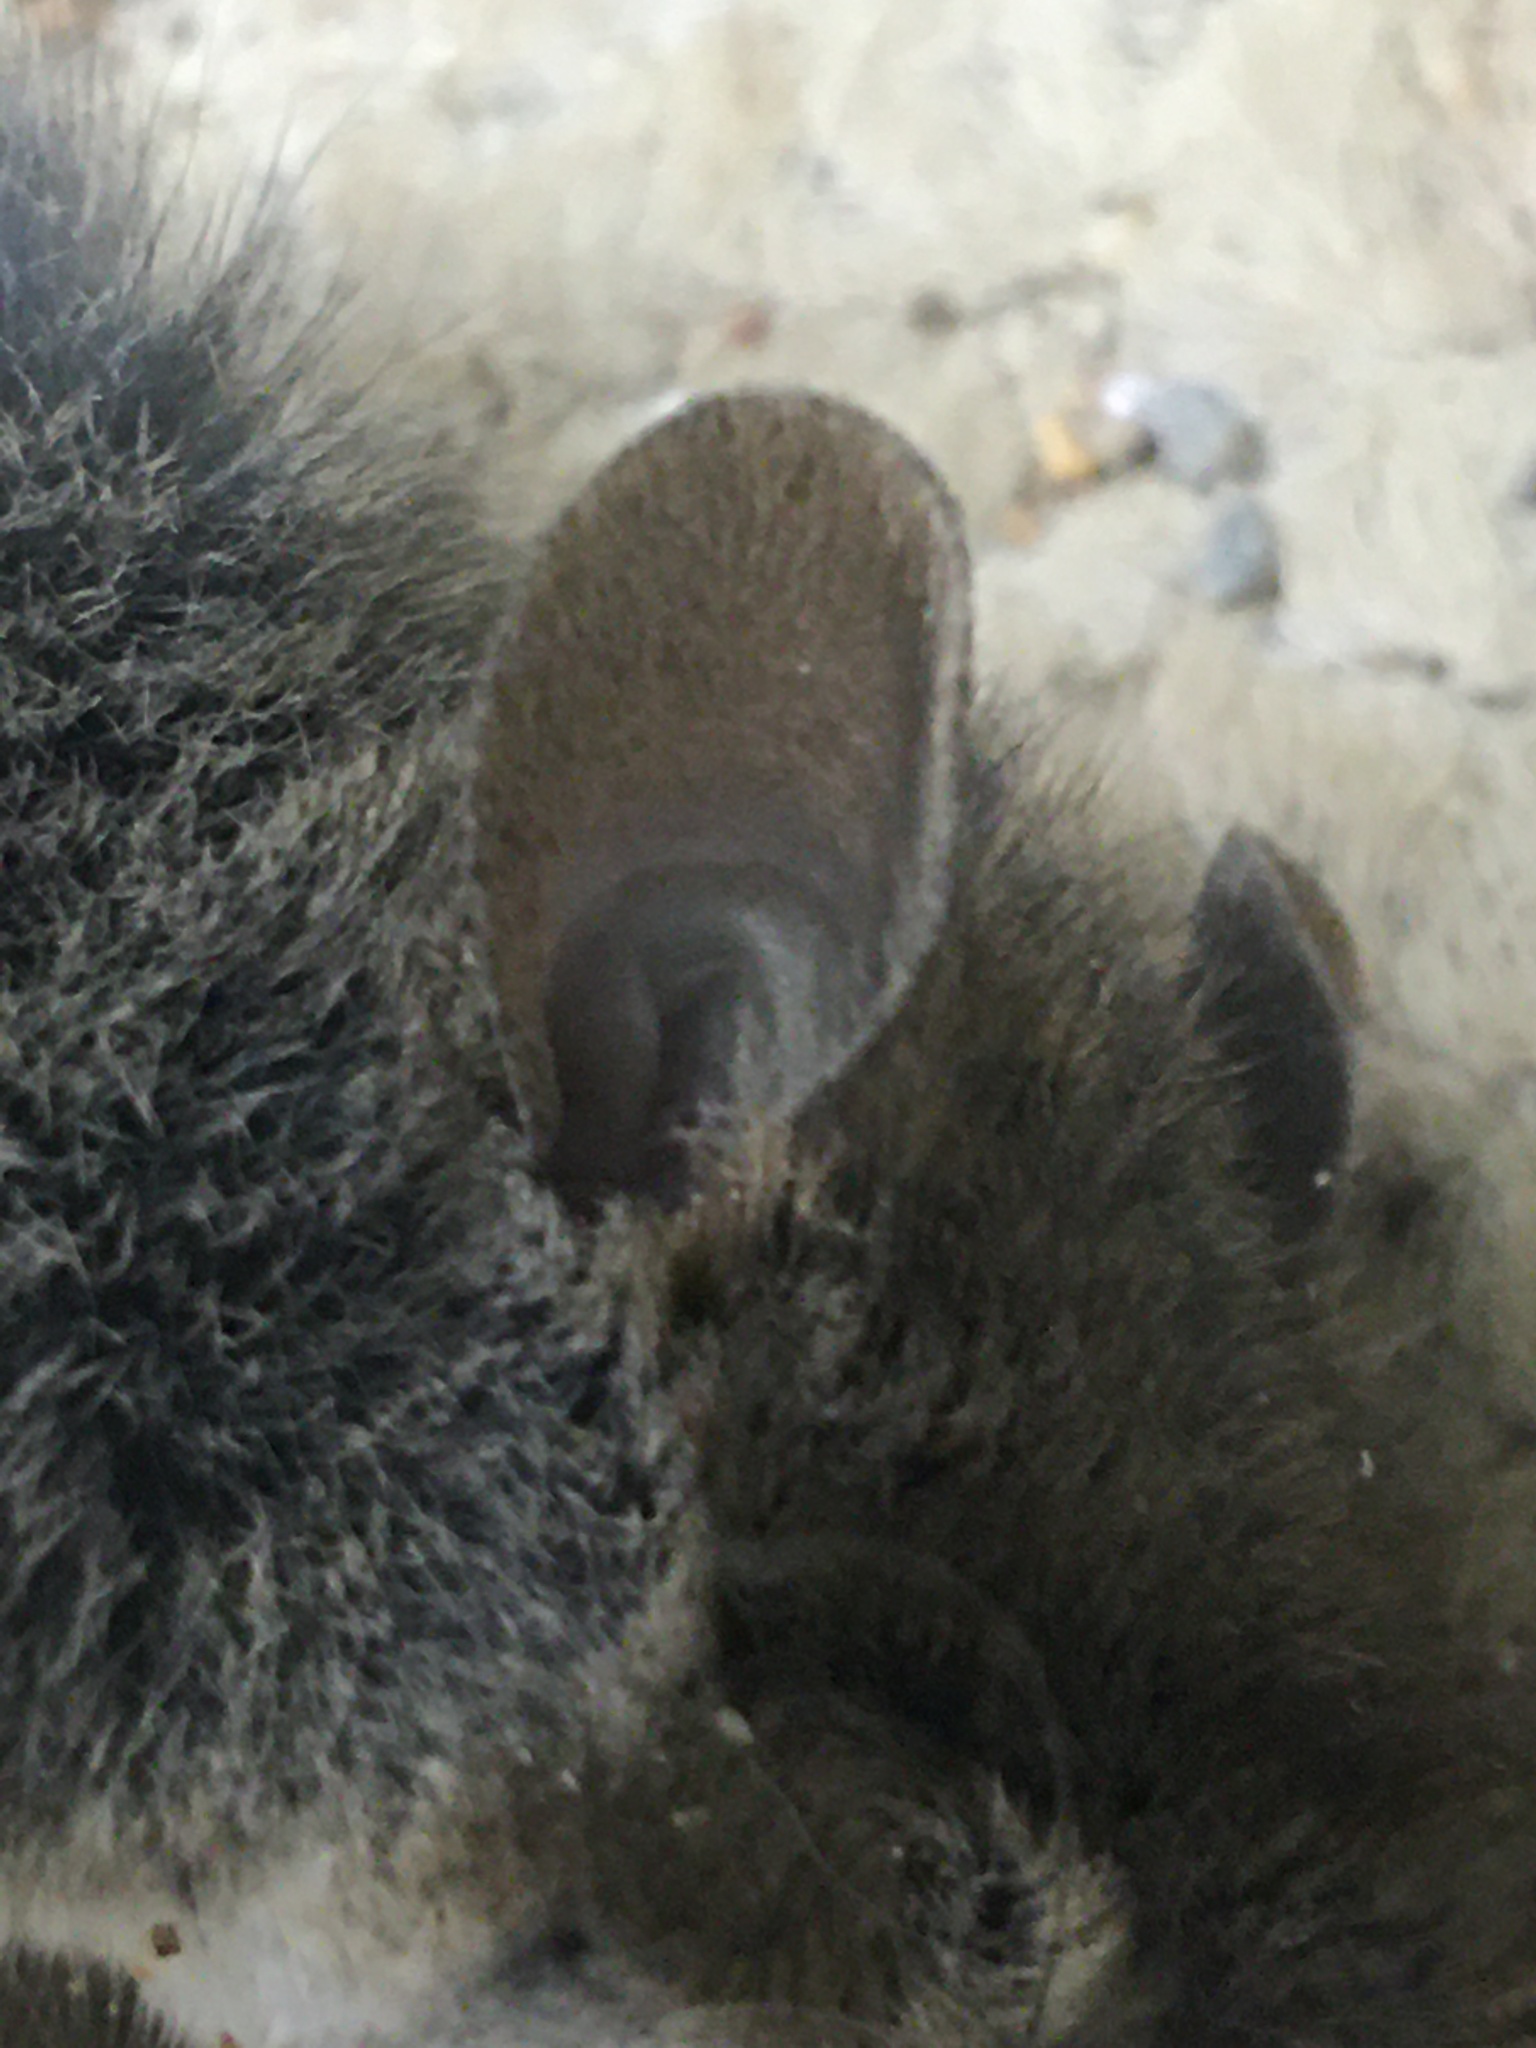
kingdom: Animalia
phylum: Chordata
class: Mammalia
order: Rodentia
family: Muridae
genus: Mus
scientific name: Mus musculus
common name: House mouse
